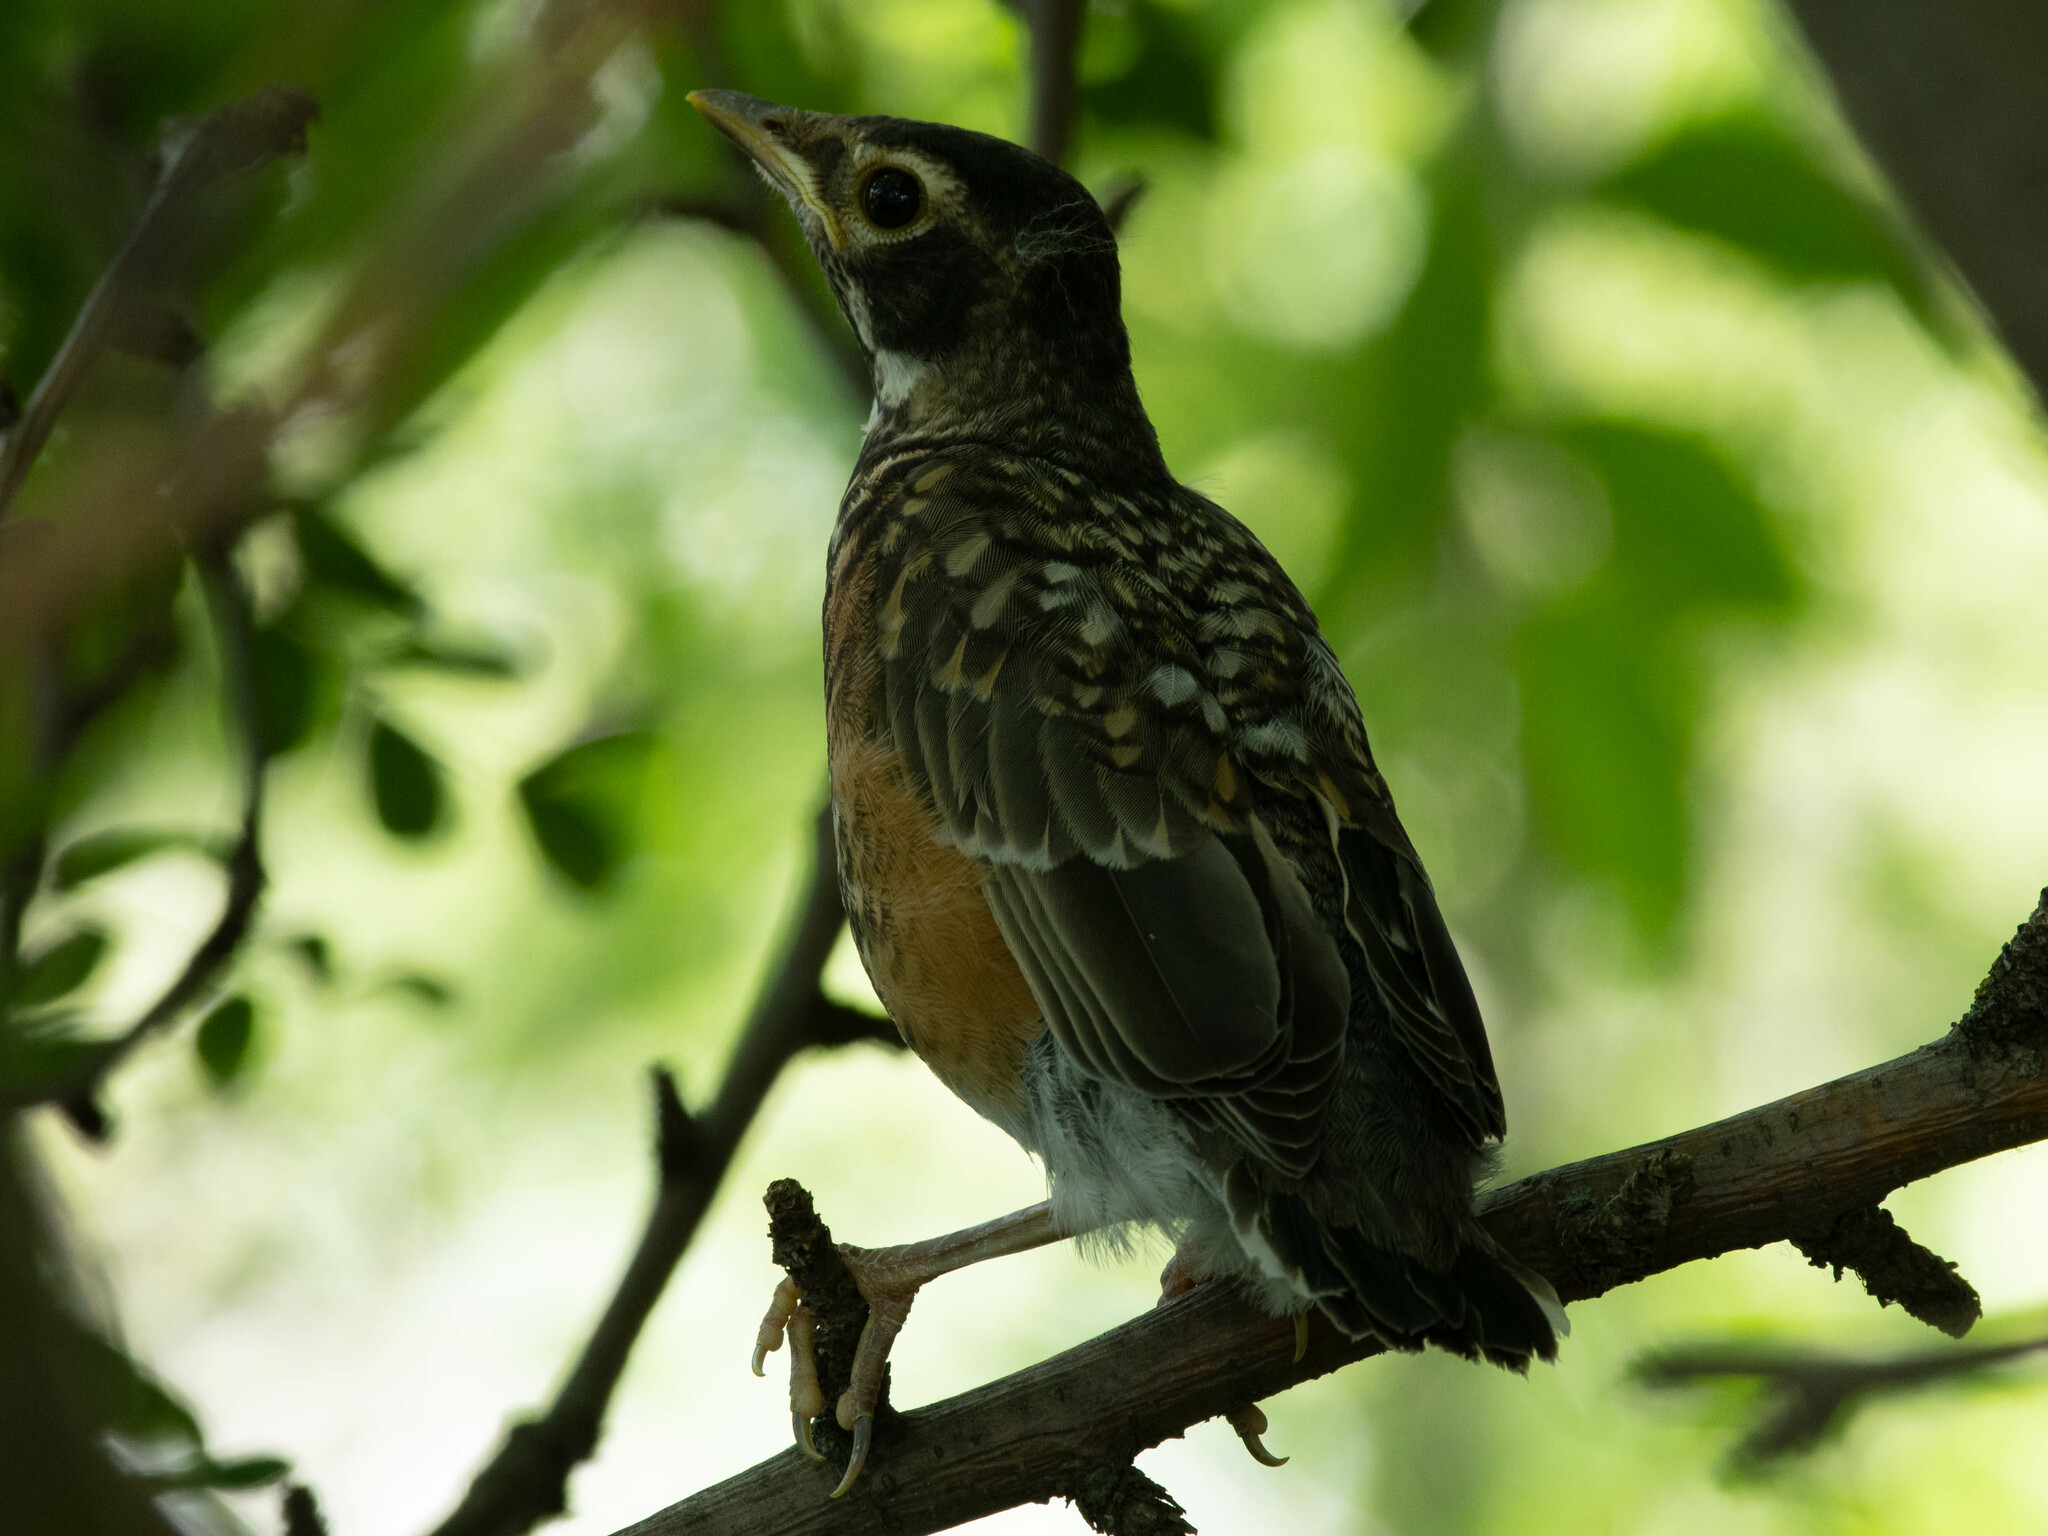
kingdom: Animalia
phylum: Chordata
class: Aves
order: Passeriformes
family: Turdidae
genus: Turdus
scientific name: Turdus migratorius
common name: American robin
